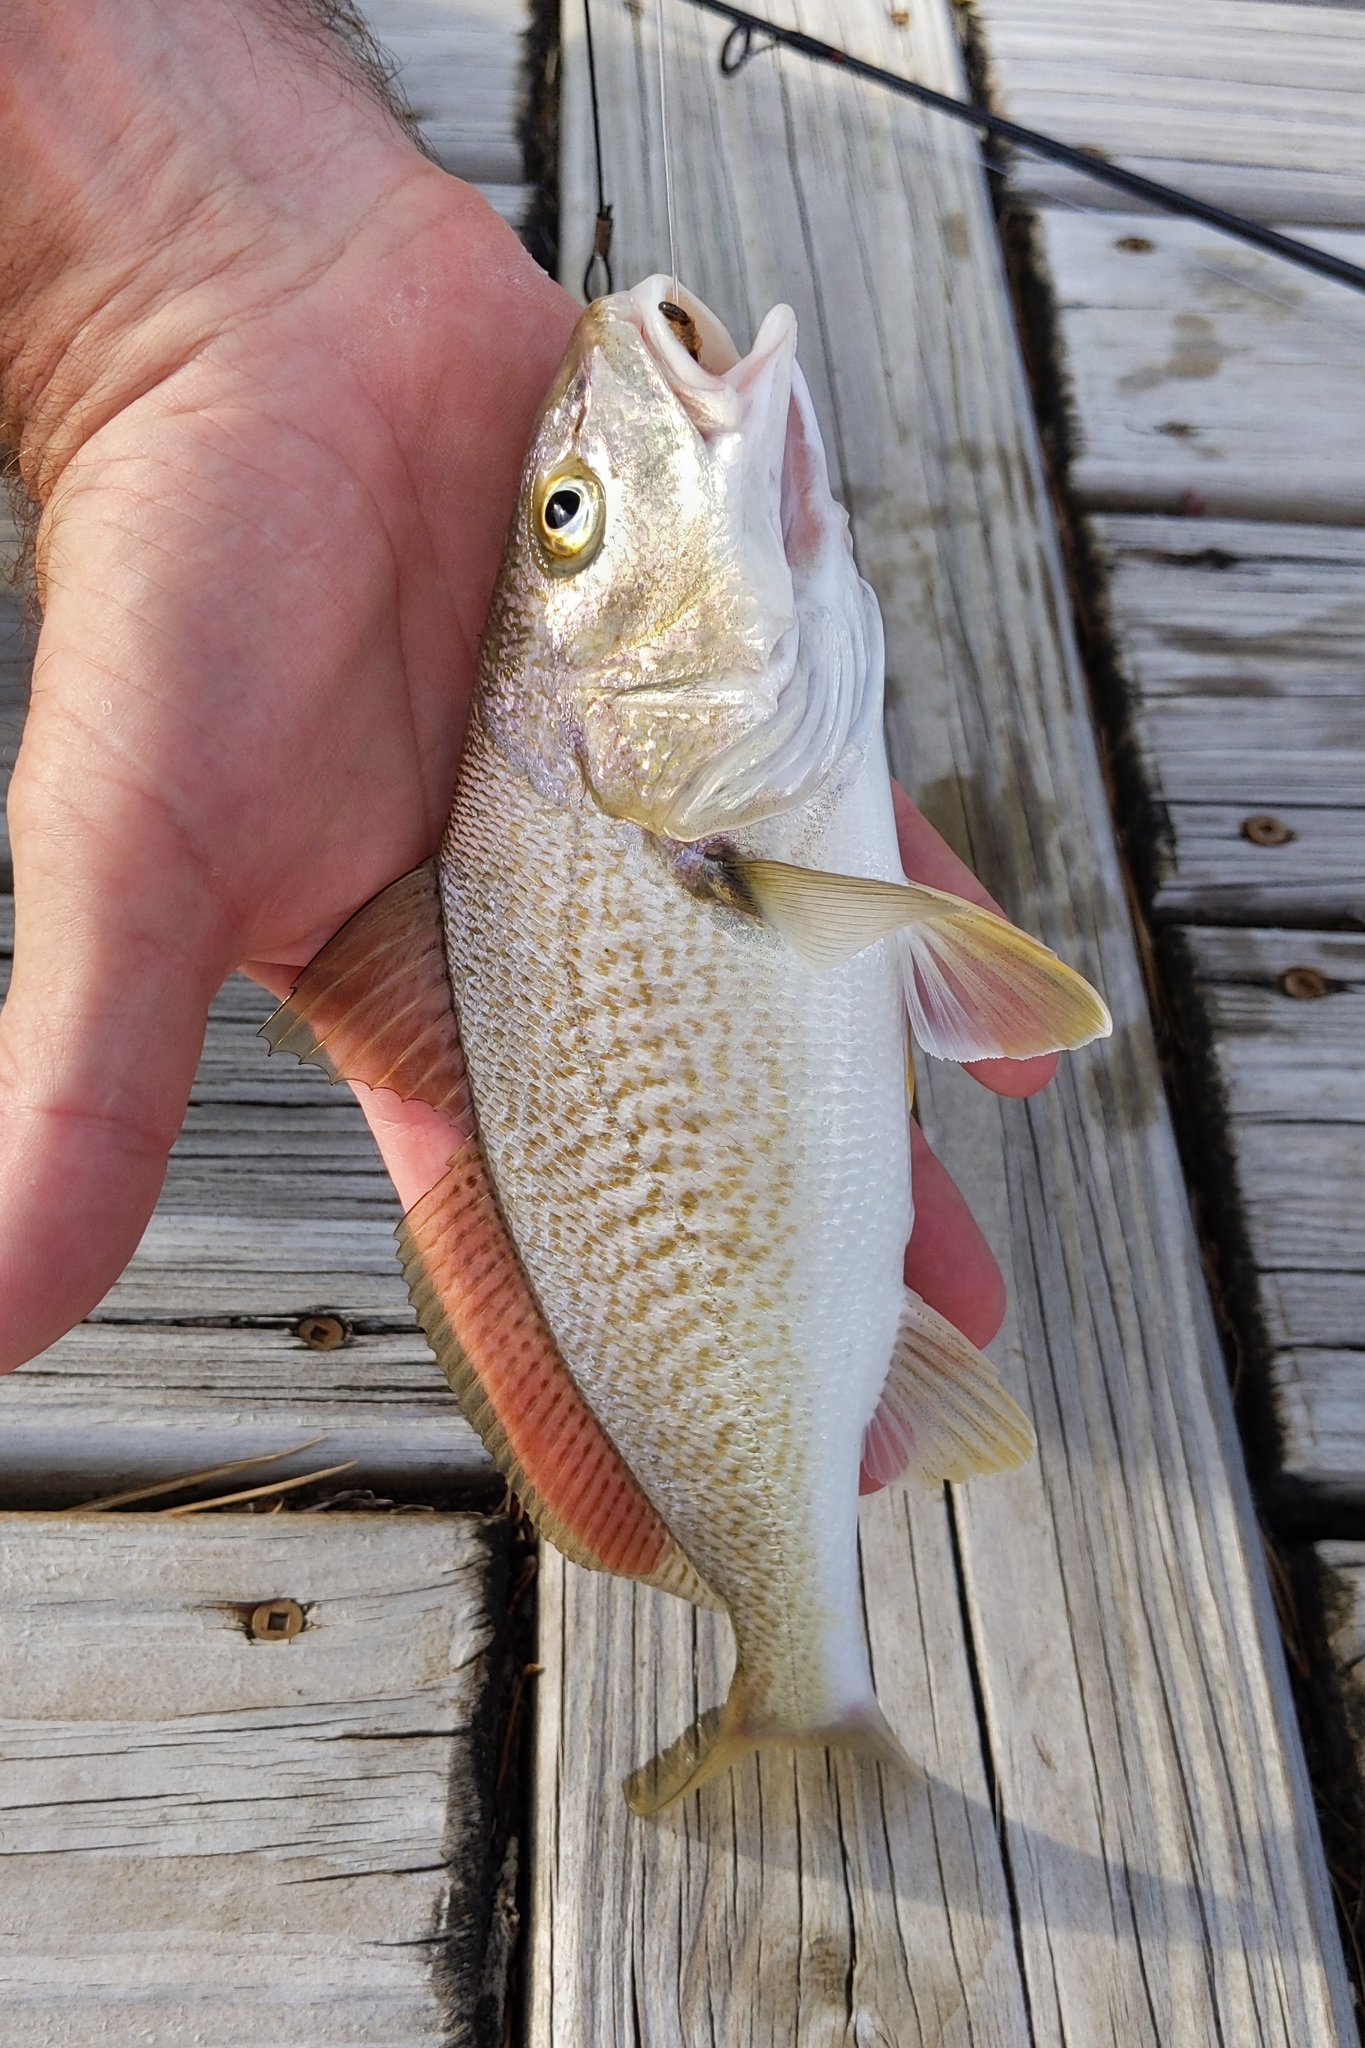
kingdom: Animalia
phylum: Chordata
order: Perciformes
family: Sciaenidae
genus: Micropogonias
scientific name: Micropogonias undulatus
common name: Atlantic croaker
